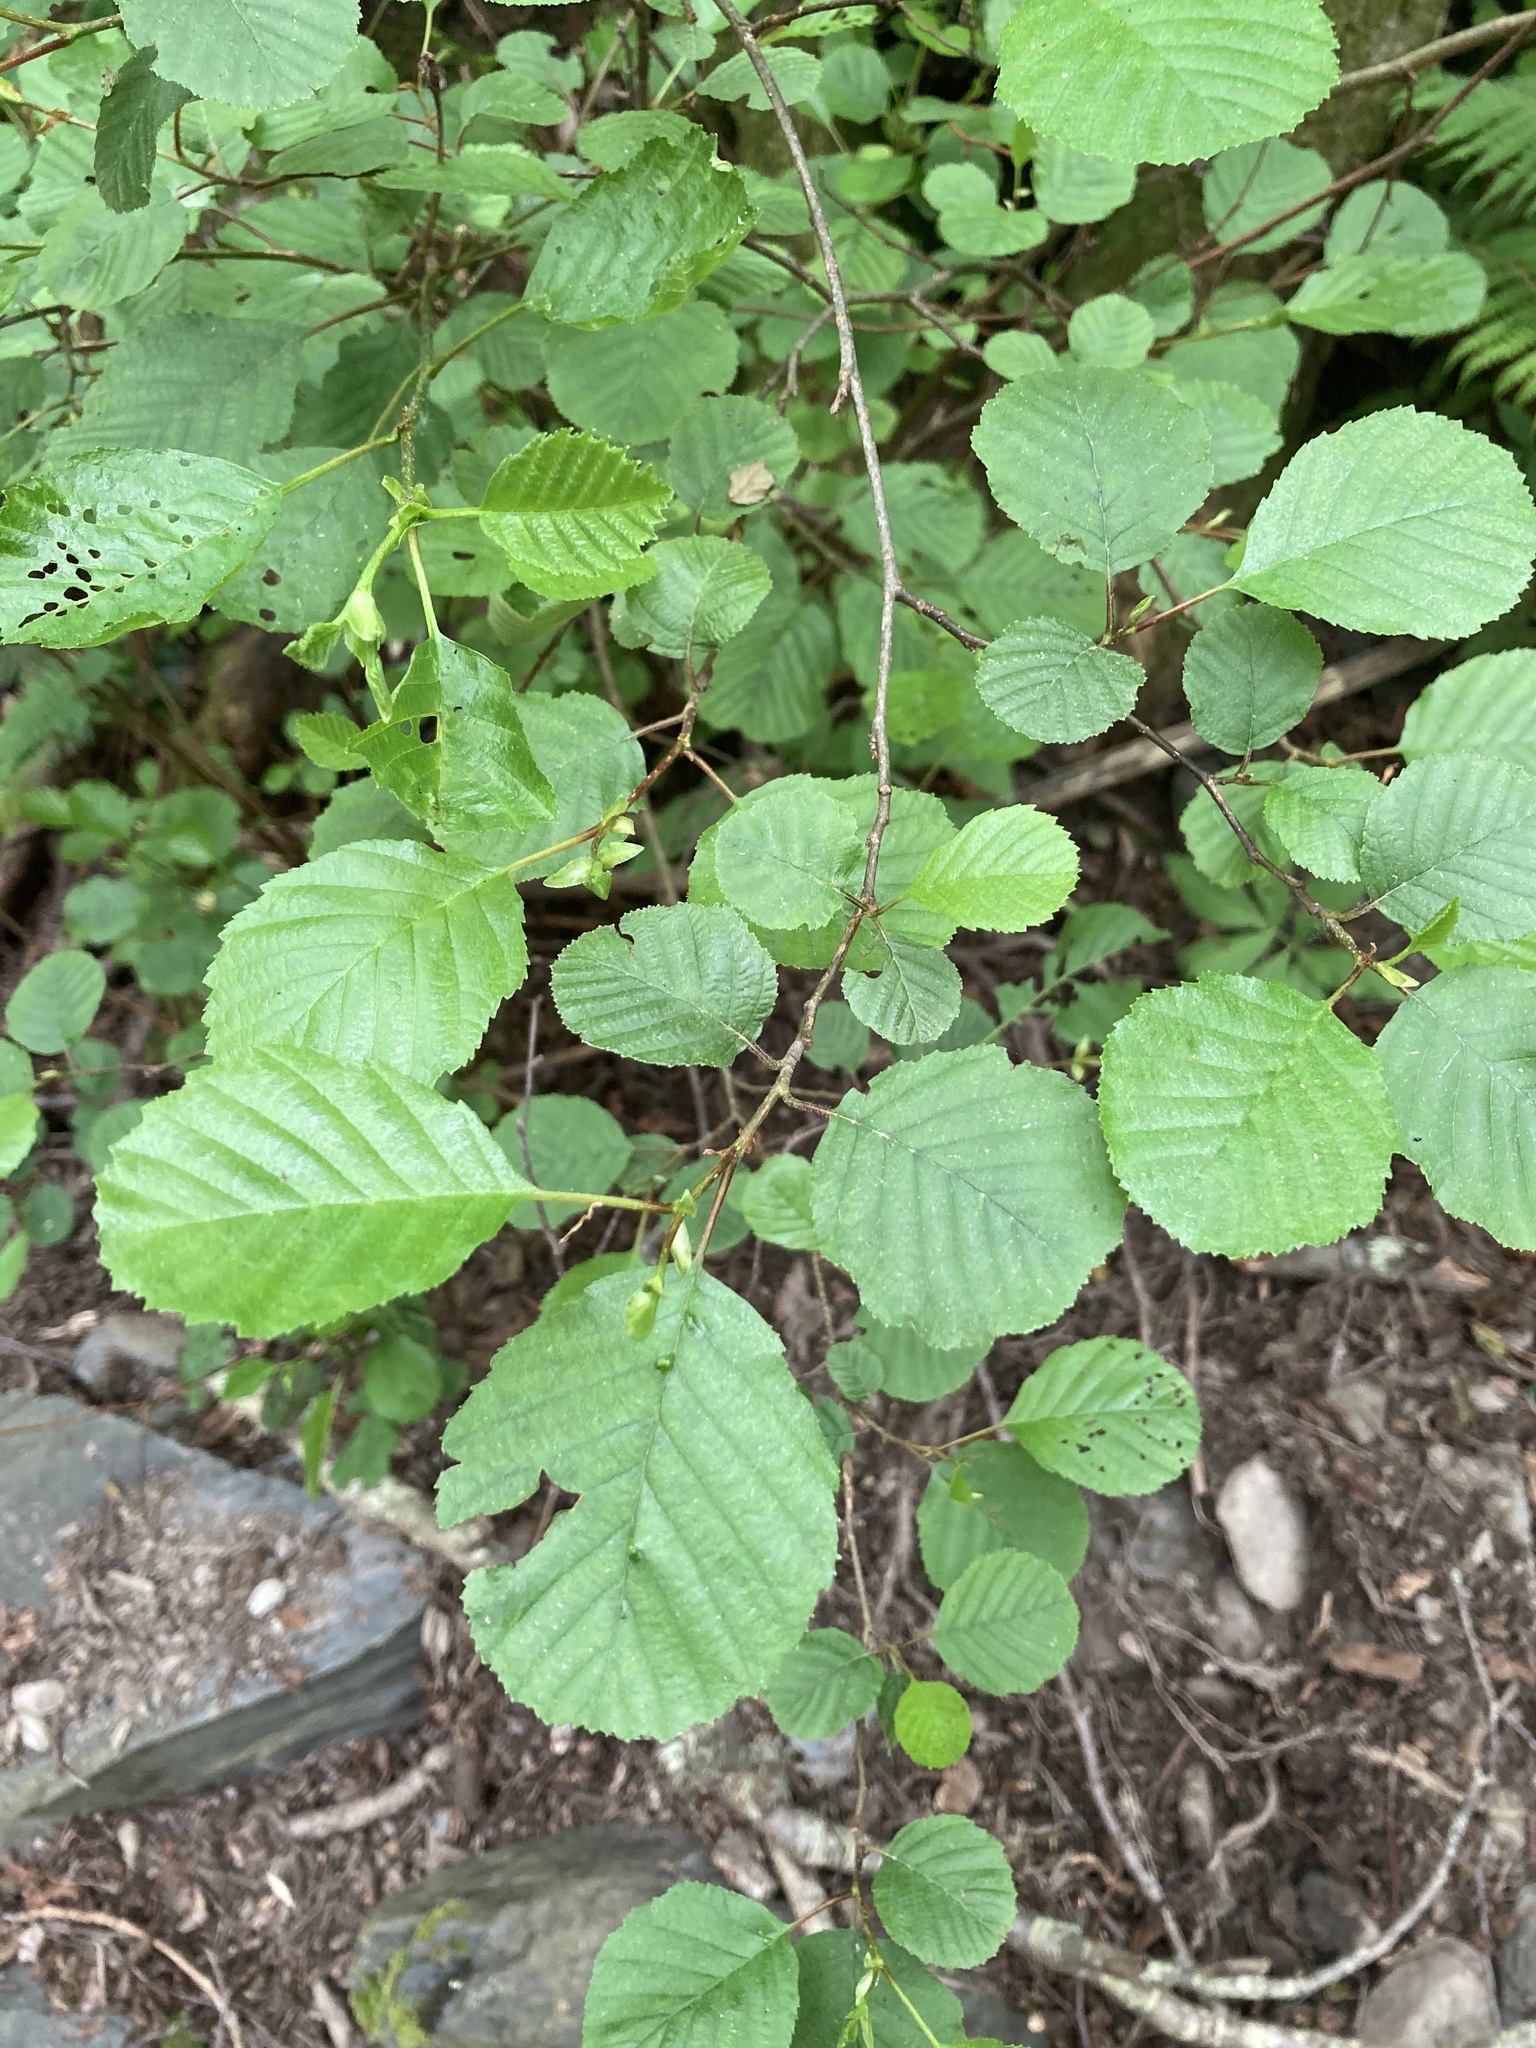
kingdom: Plantae
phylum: Tracheophyta
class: Magnoliopsida
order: Fagales
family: Betulaceae
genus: Alnus
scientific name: Alnus glutinosa
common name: Black alder
